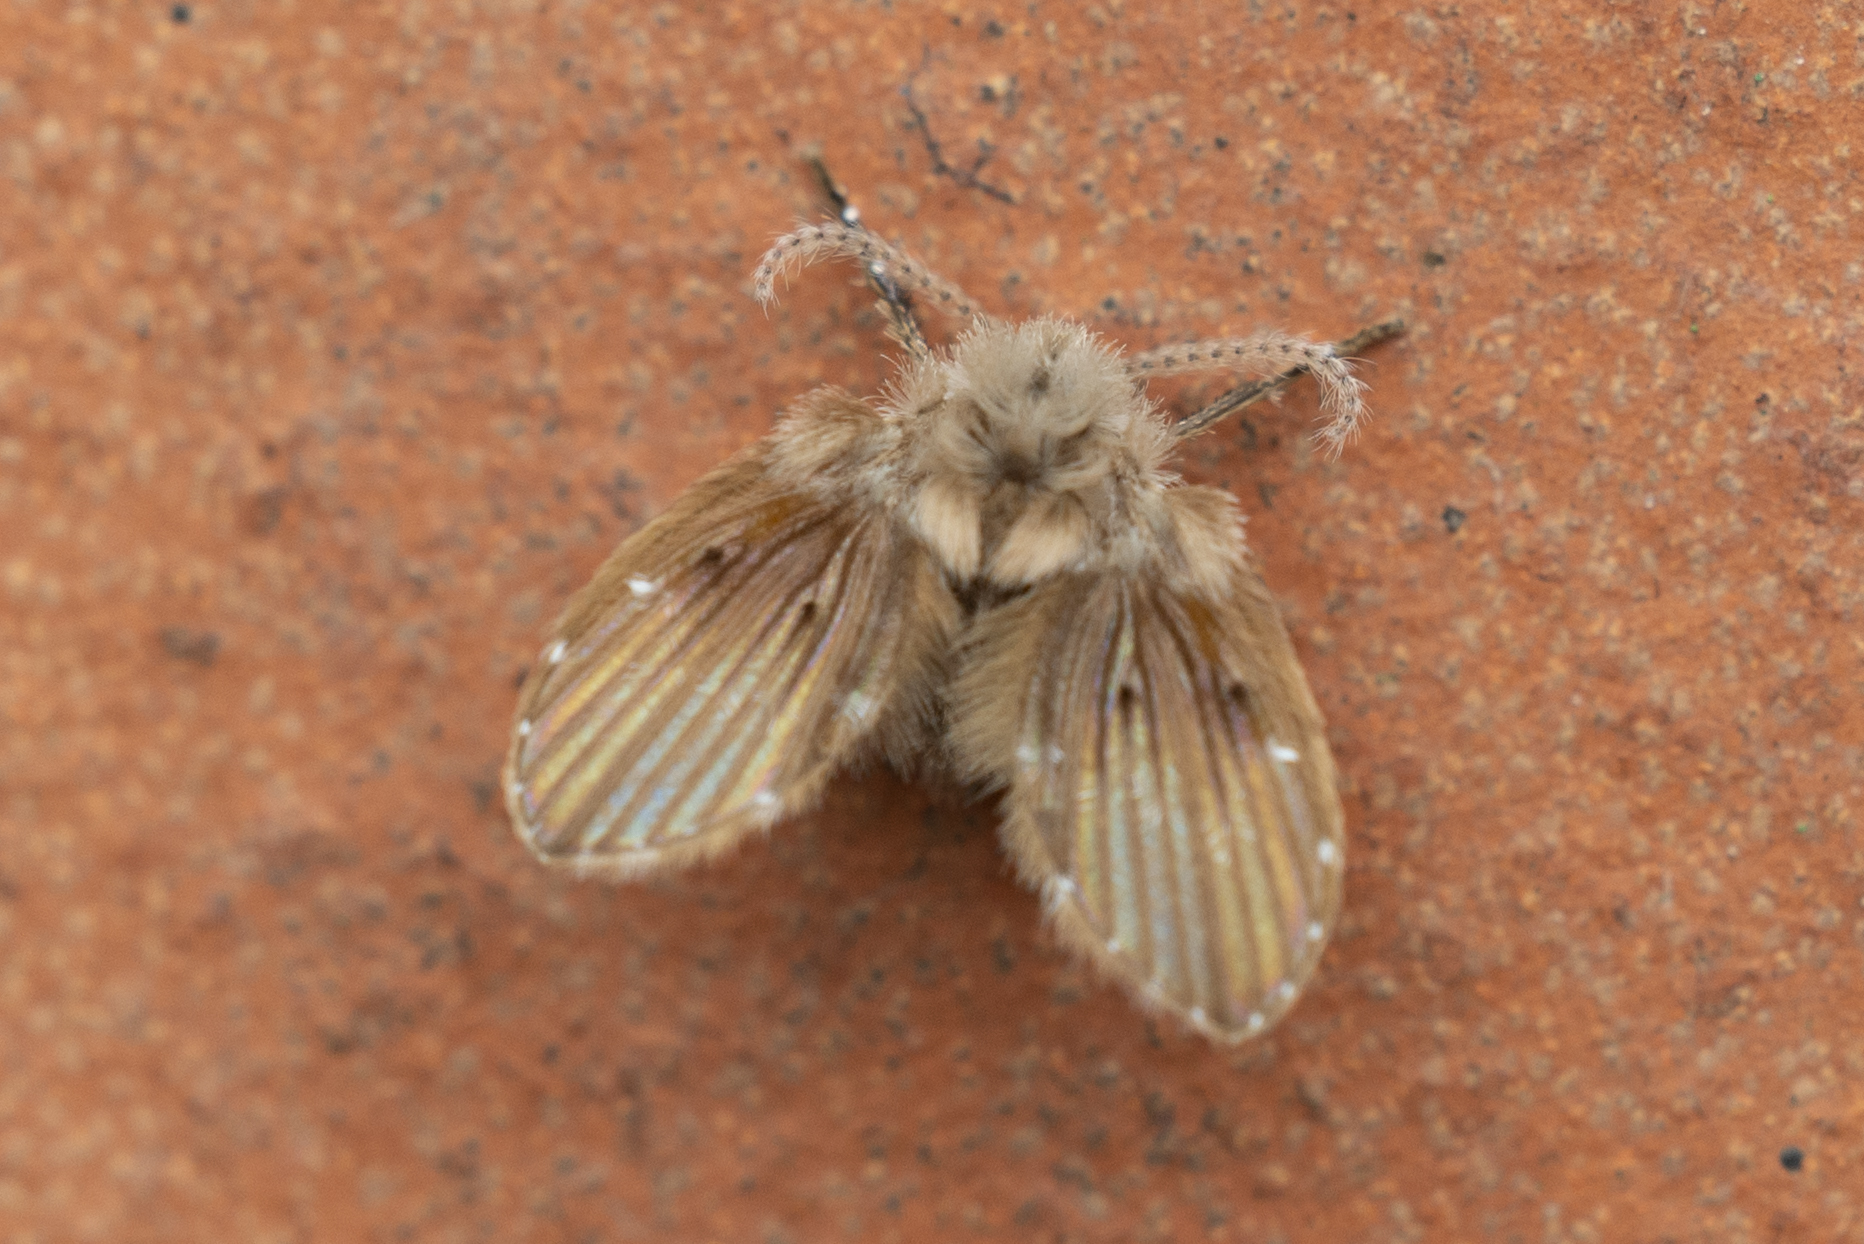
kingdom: Animalia
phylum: Arthropoda
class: Insecta
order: Diptera
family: Psychodidae
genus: Clogmia
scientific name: Clogmia albipunctatus
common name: White-spotted moth fly
